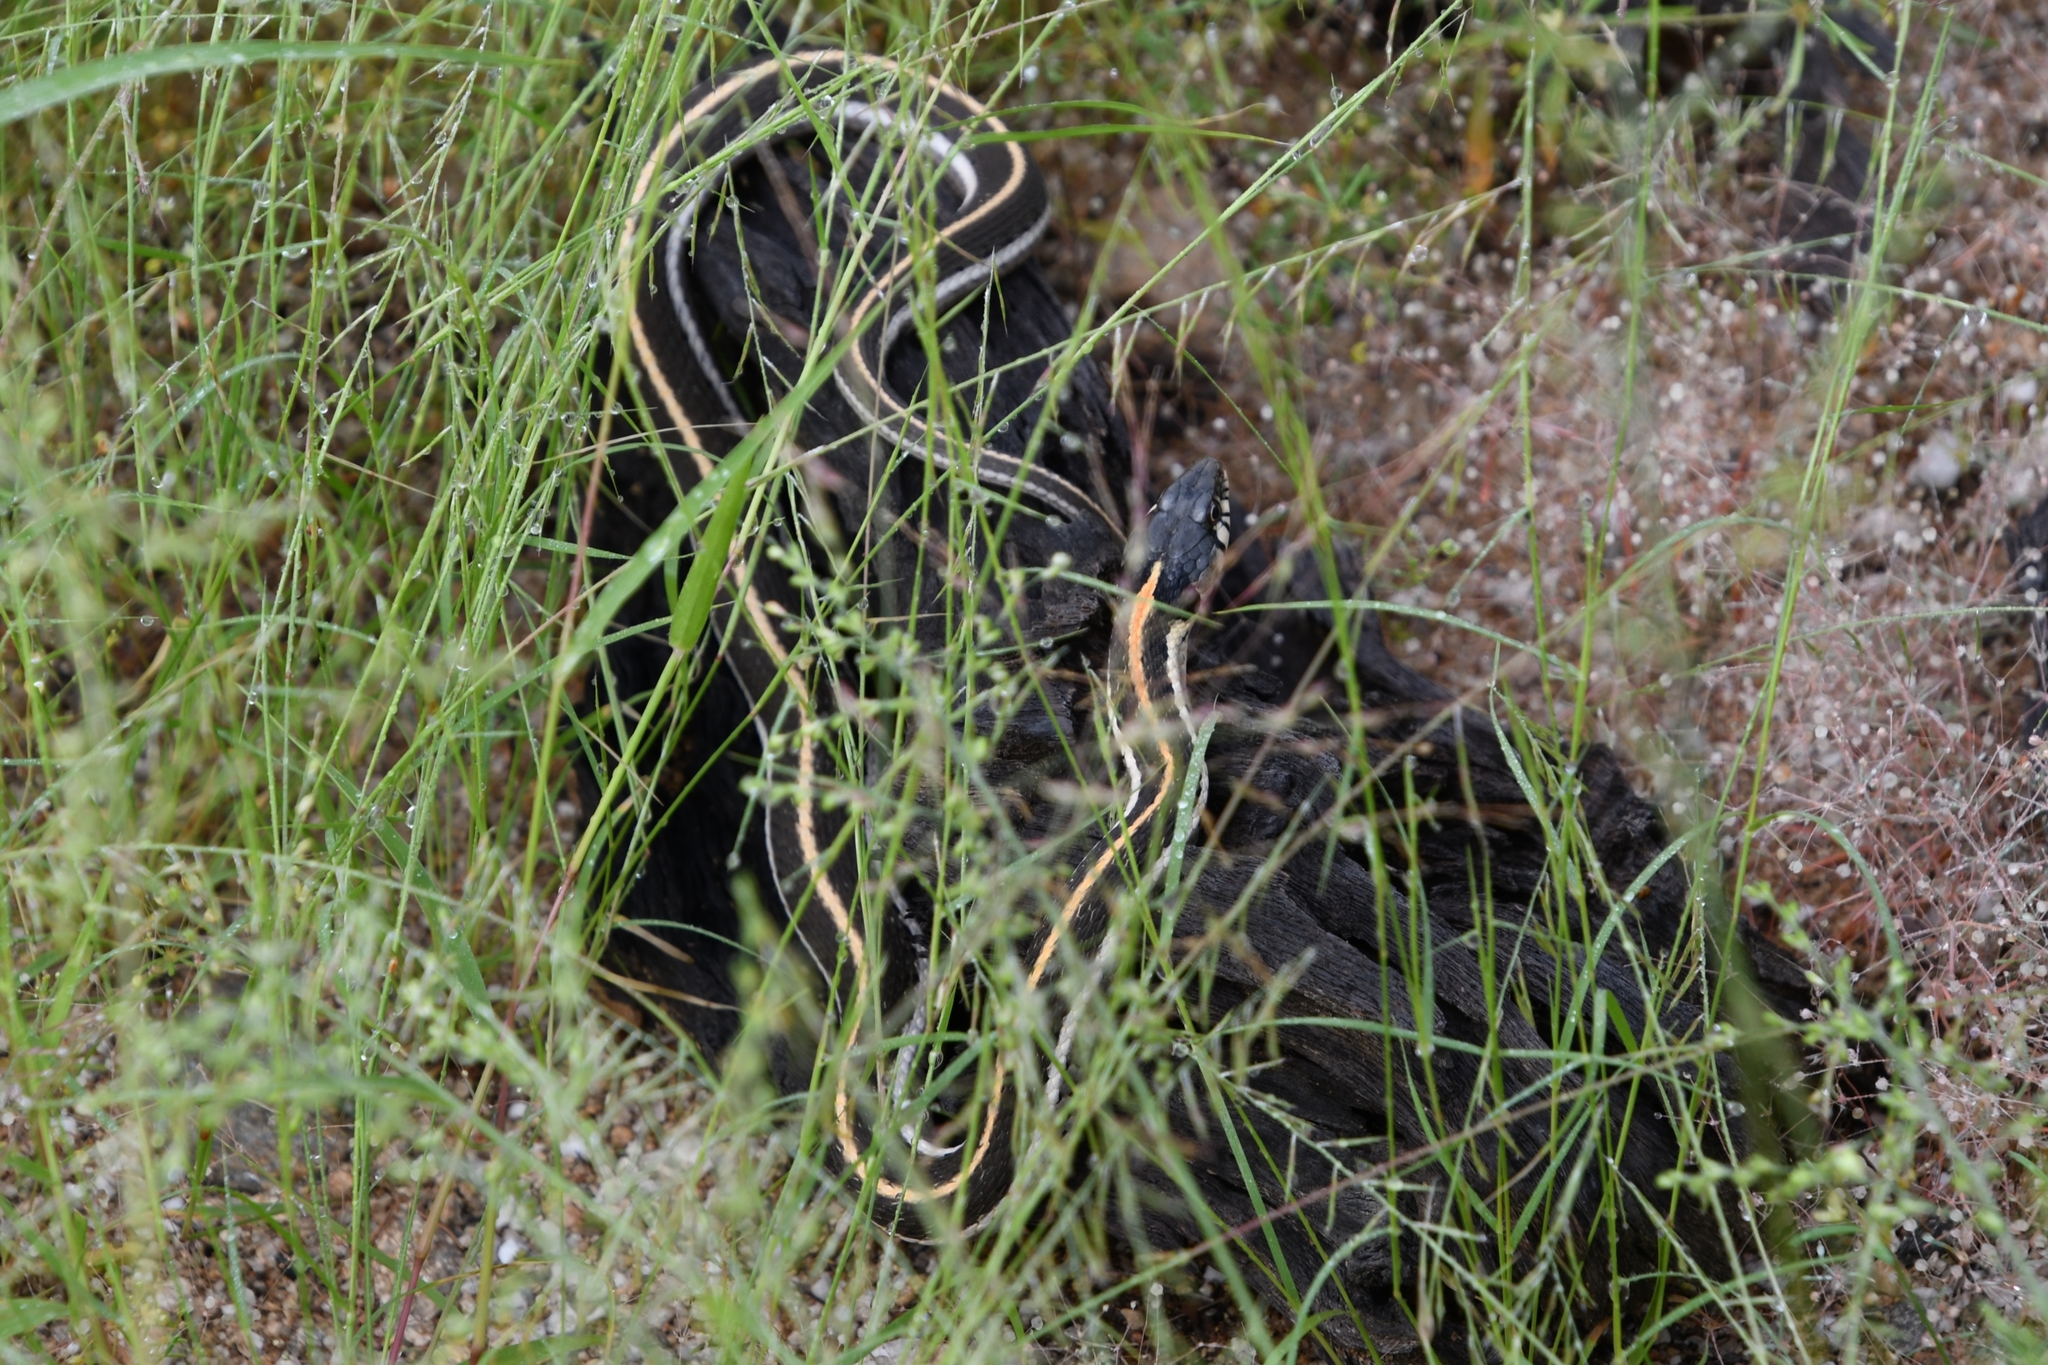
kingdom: Animalia
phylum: Chordata
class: Squamata
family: Colubridae
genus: Thamnophis
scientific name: Thamnophis cyrtopsis
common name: Black-necked gartersnake
